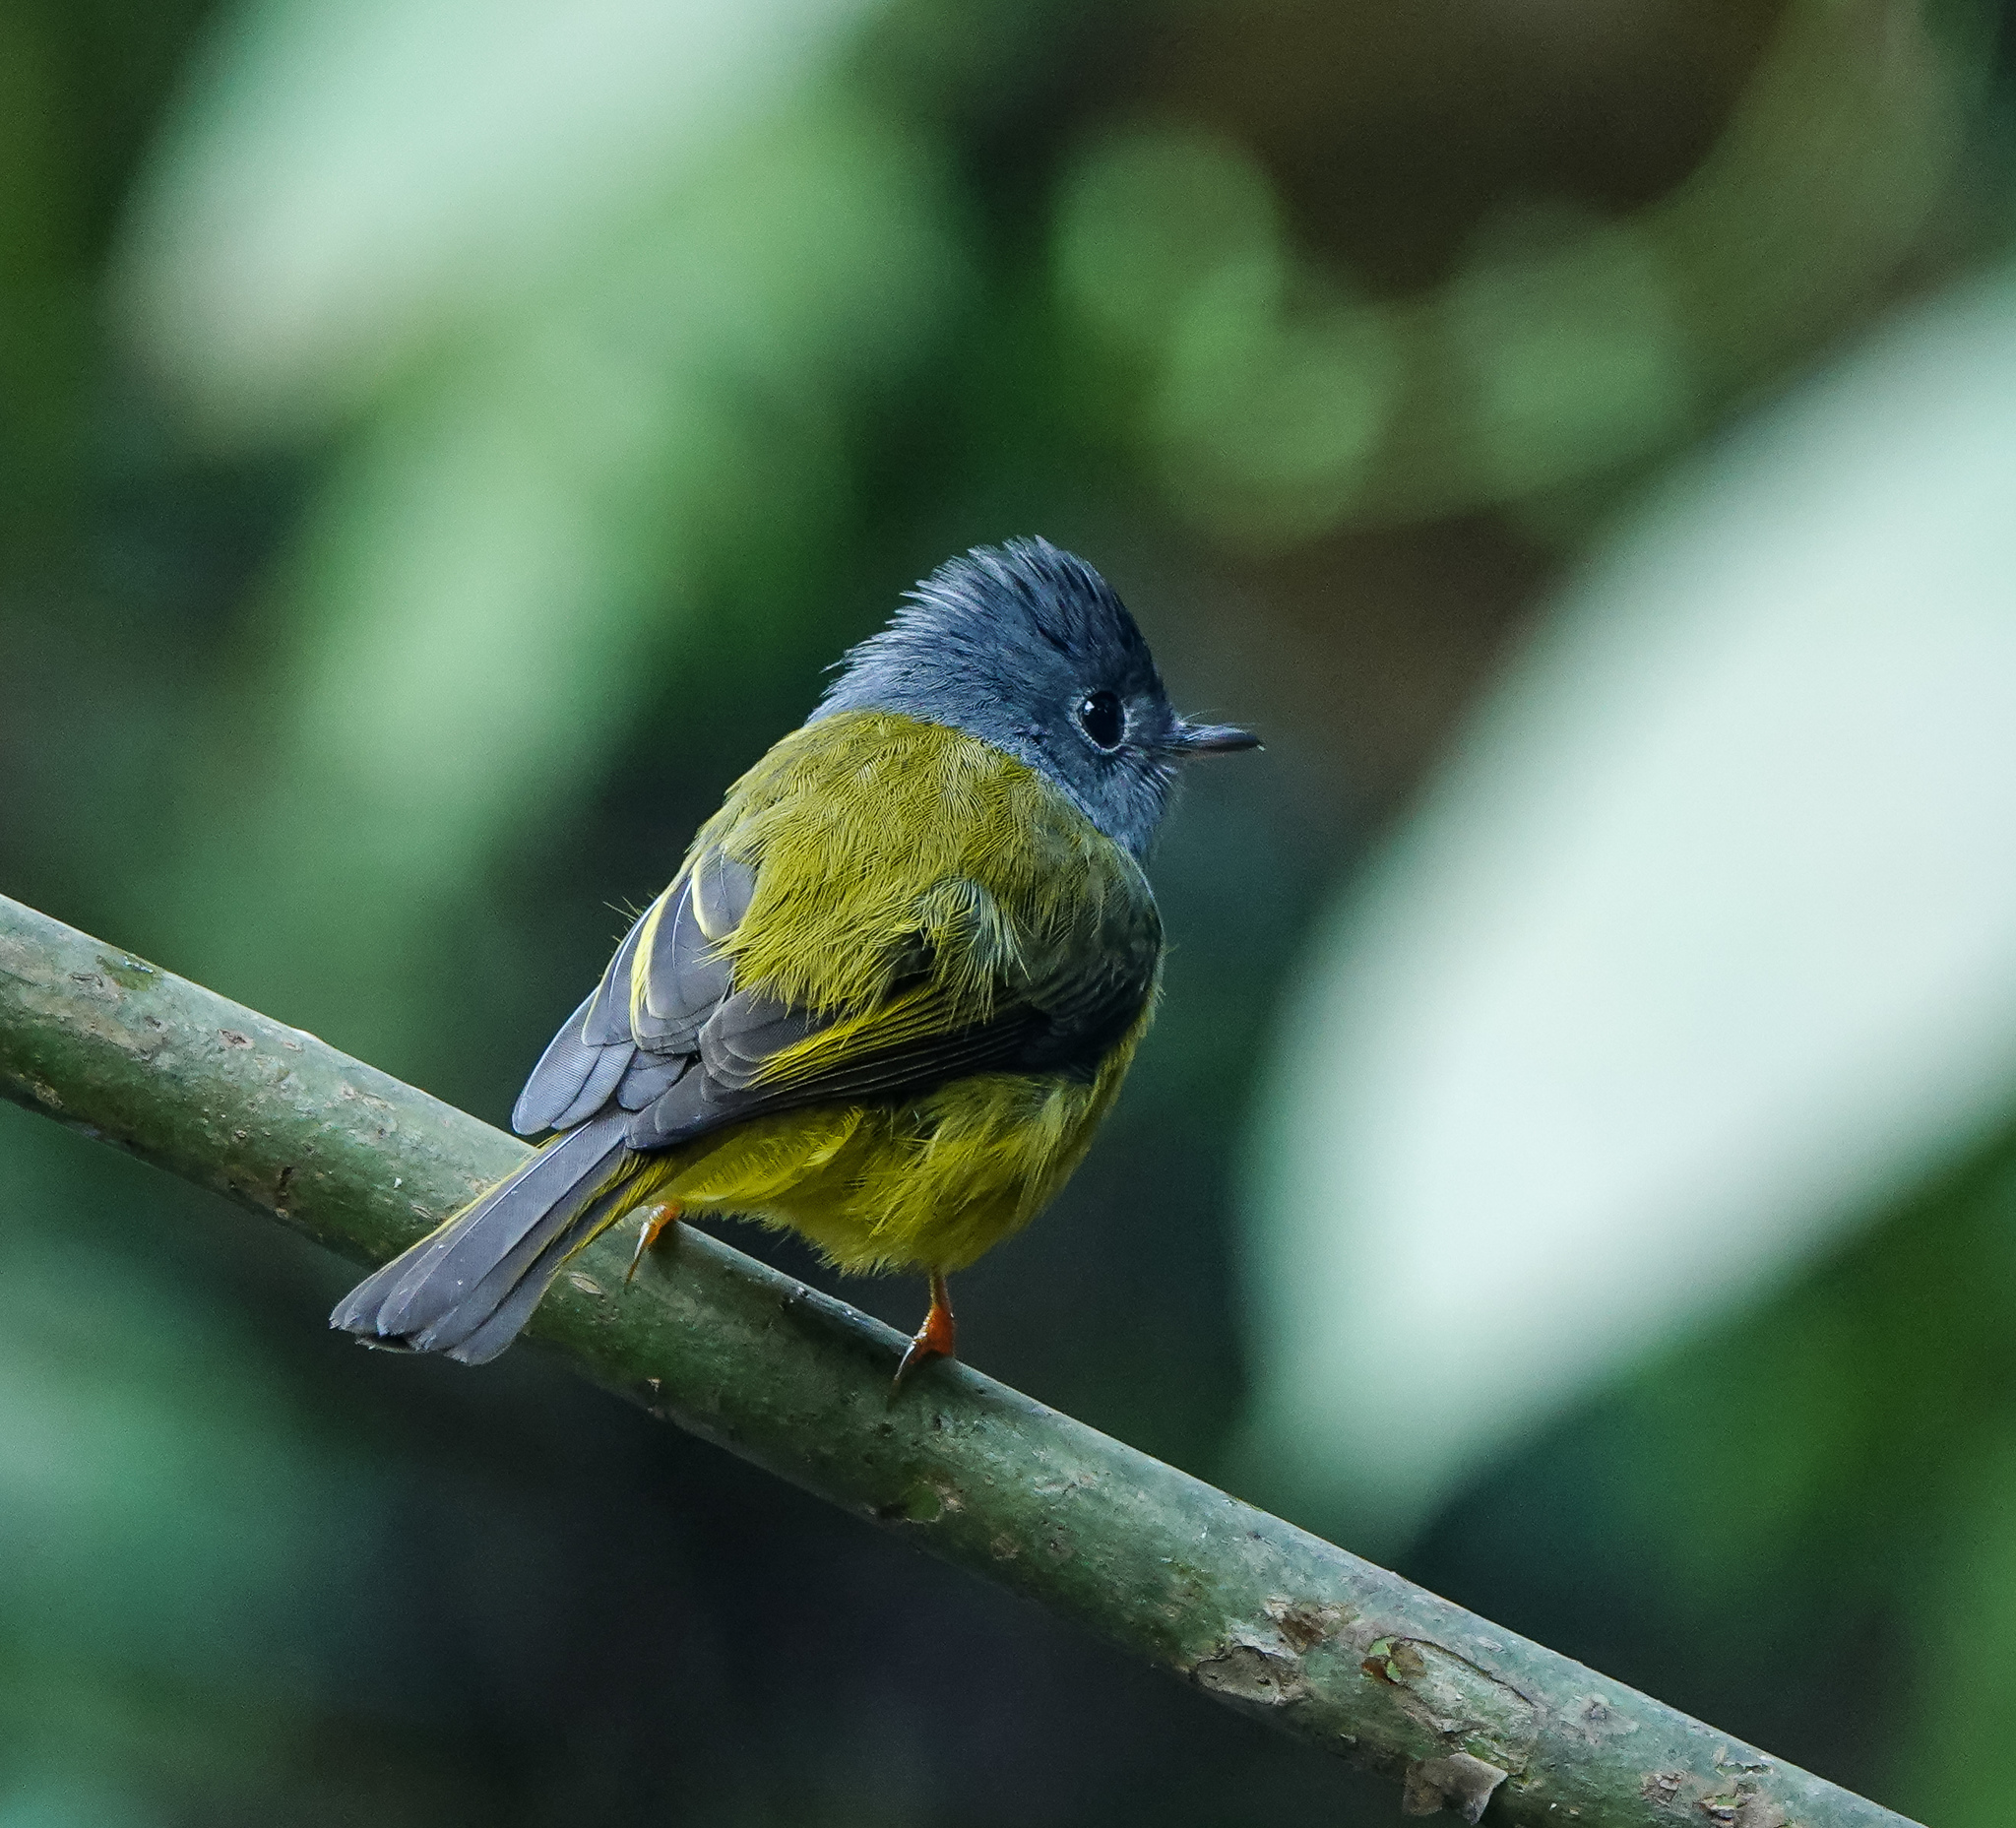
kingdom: Animalia
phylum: Chordata
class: Aves
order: Passeriformes
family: Stenostiridae
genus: Culicicapa
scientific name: Culicicapa ceylonensis
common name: Grey-headed canary-flycatcher
